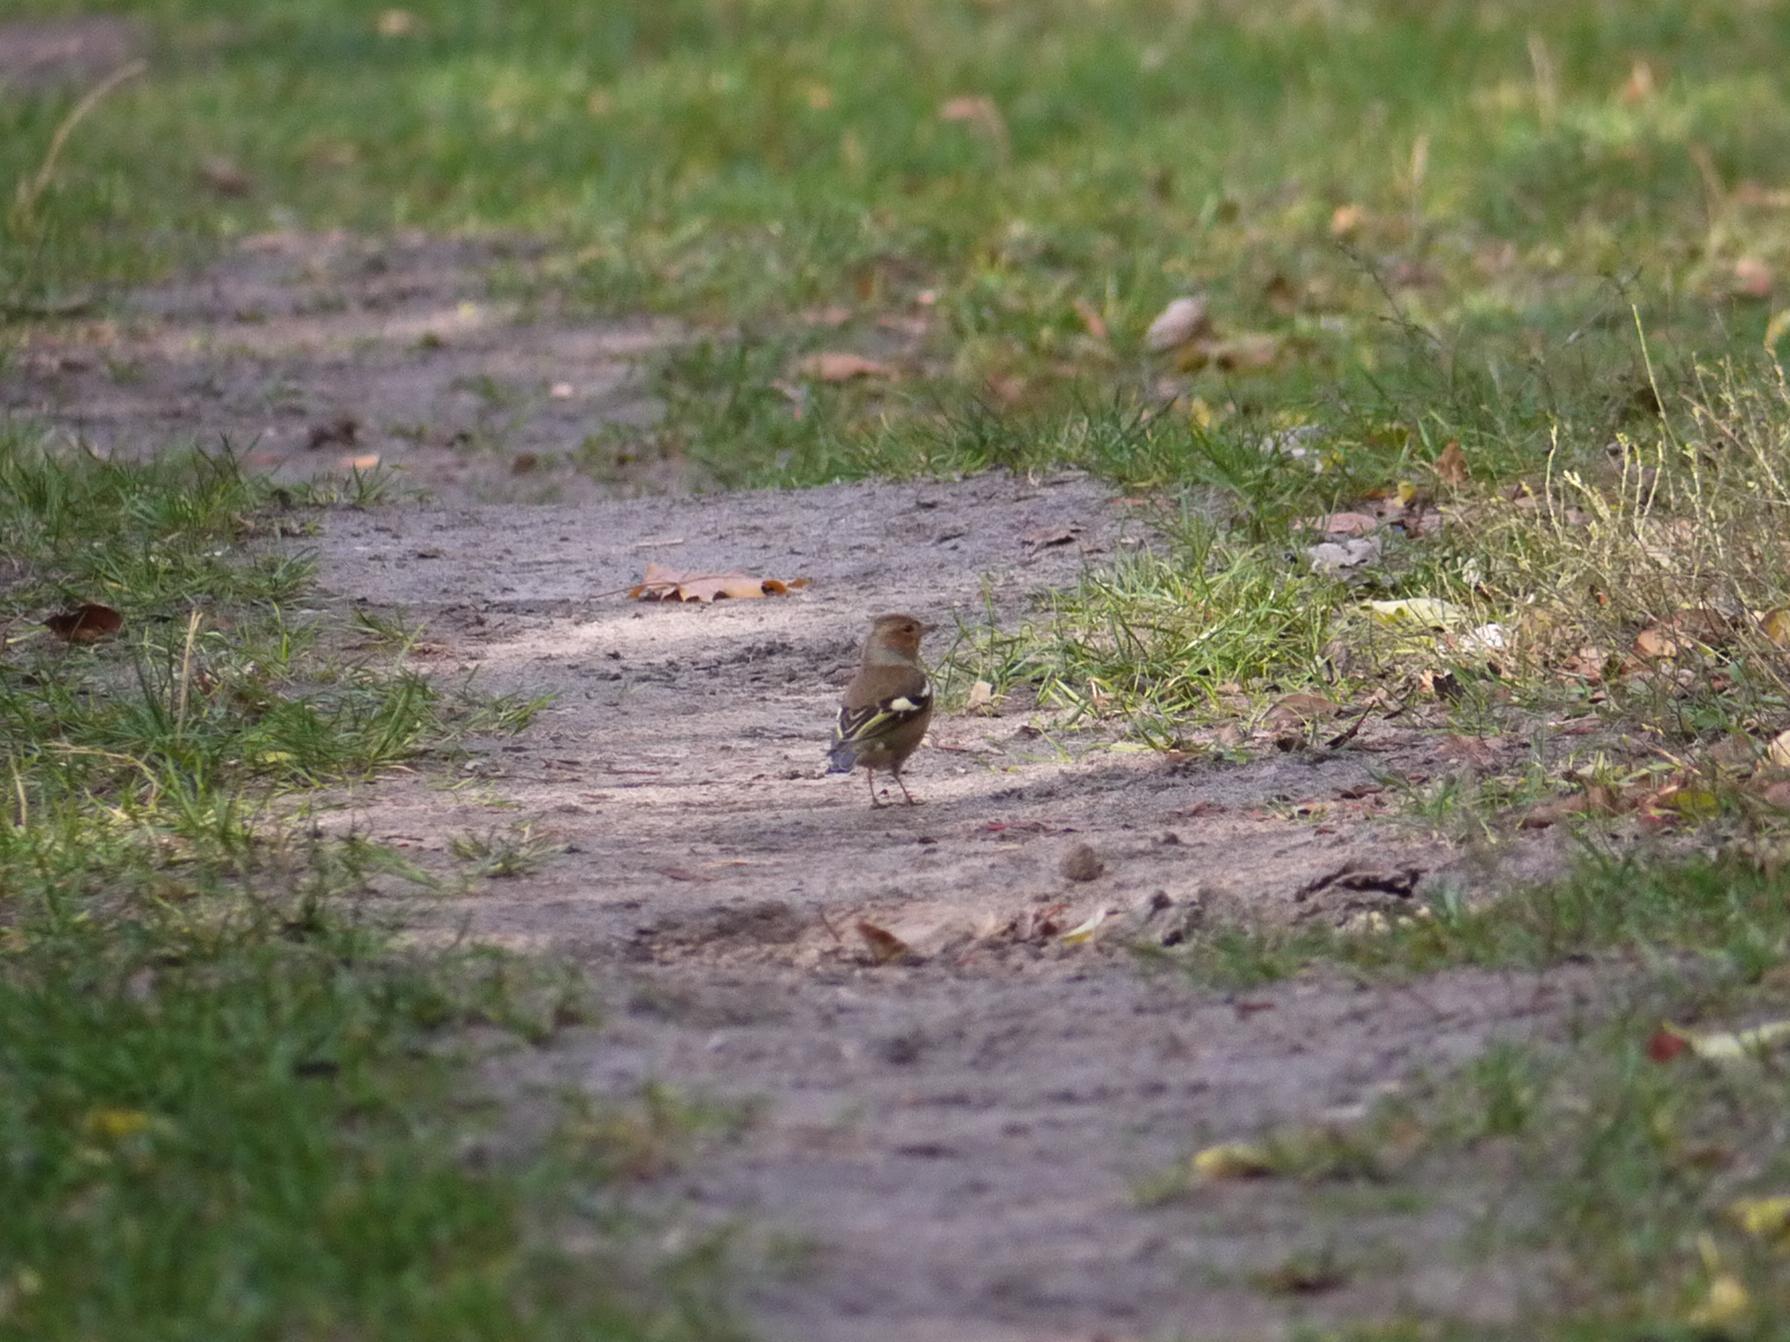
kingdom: Animalia
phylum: Chordata
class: Aves
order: Passeriformes
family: Fringillidae
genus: Fringilla
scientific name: Fringilla coelebs
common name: Common chaffinch
